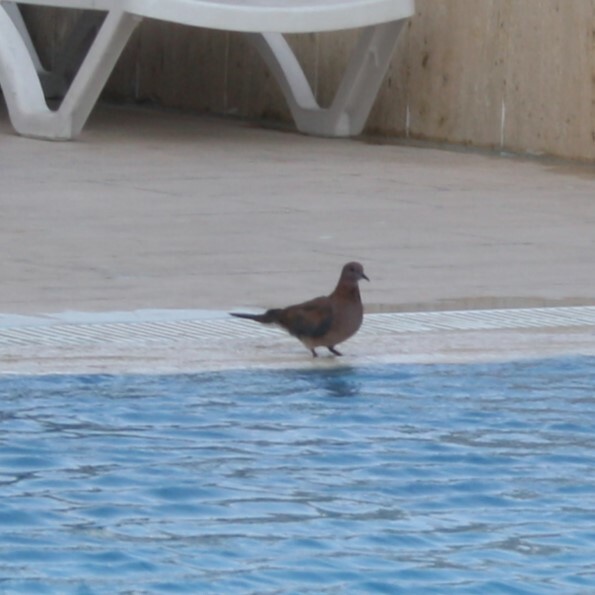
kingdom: Animalia
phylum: Chordata
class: Aves
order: Columbiformes
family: Columbidae
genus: Spilopelia
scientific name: Spilopelia senegalensis
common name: Laughing dove
